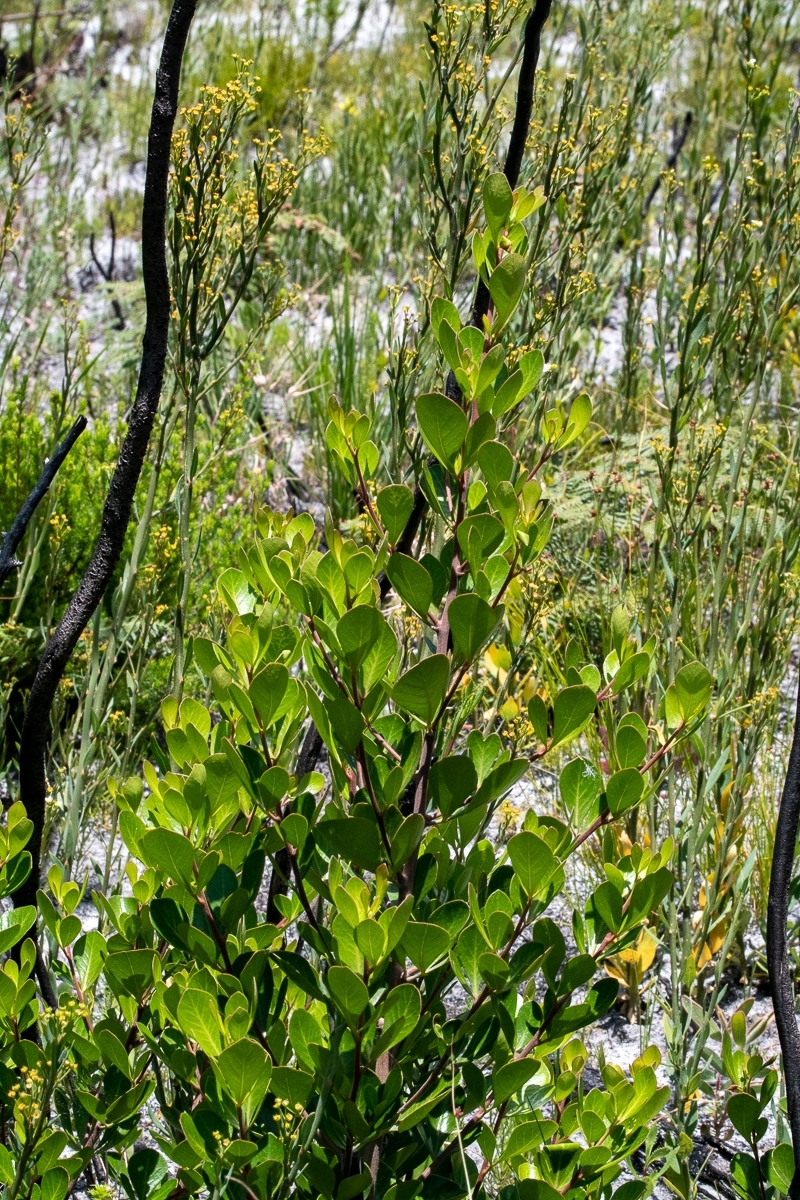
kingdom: Plantae
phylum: Tracheophyta
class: Magnoliopsida
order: Sapindales
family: Anacardiaceae
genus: Searsia
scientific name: Searsia lucida
